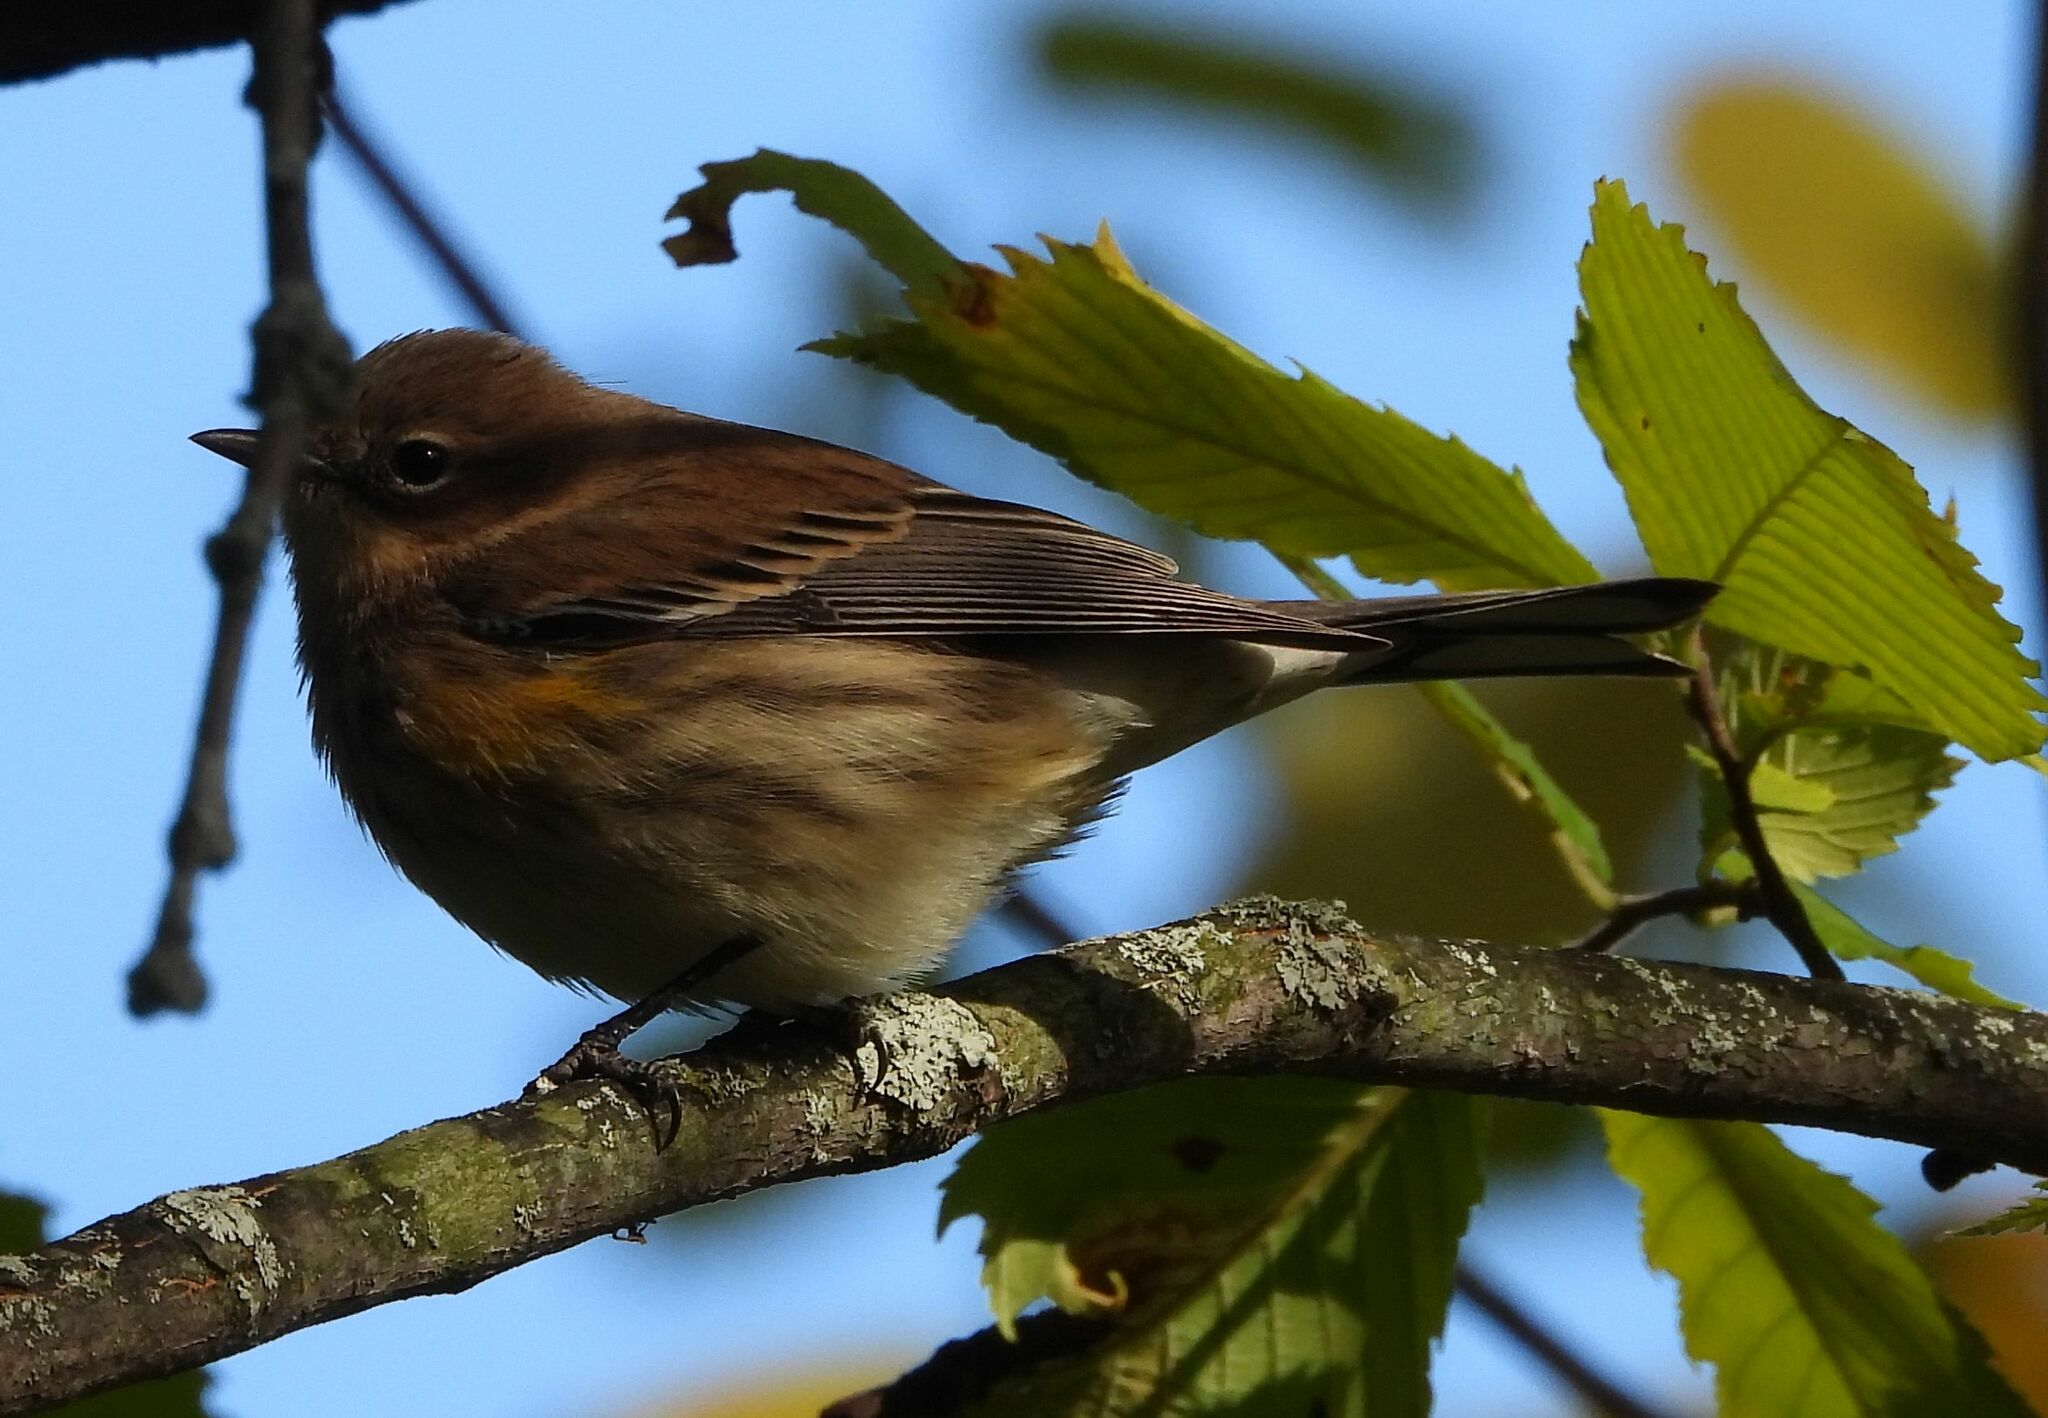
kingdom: Animalia
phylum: Chordata
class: Aves
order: Passeriformes
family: Parulidae
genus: Setophaga
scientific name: Setophaga coronata
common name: Myrtle warbler
